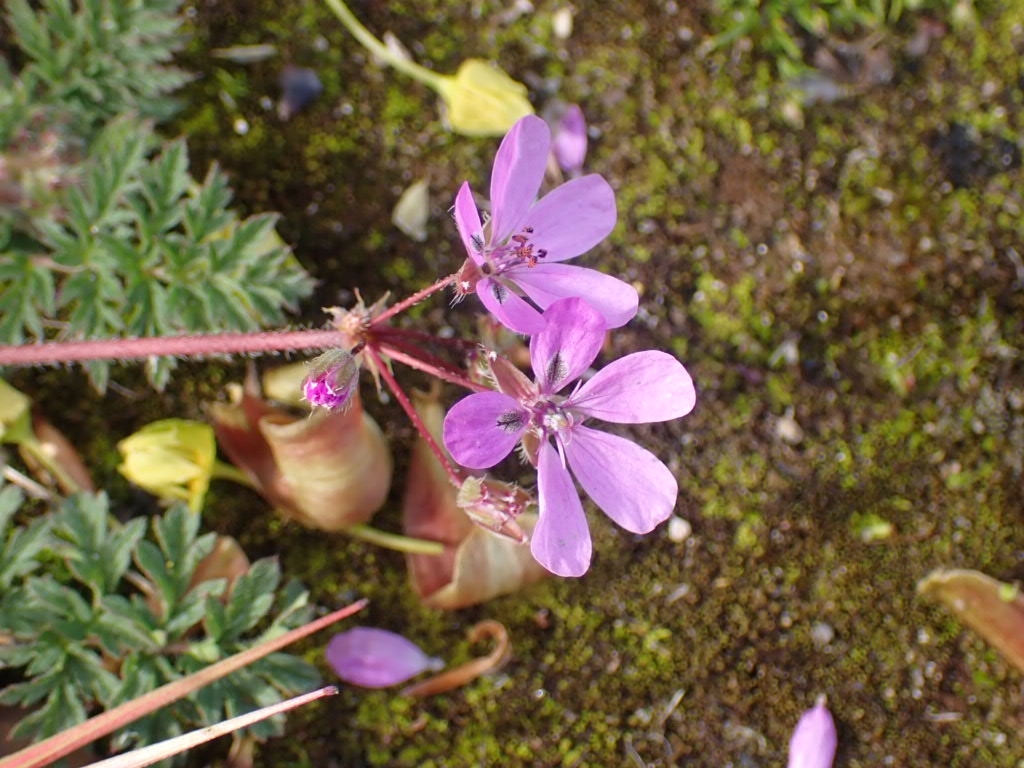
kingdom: Plantae
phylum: Tracheophyta
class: Magnoliopsida
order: Geraniales
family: Geraniaceae
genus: Erodium
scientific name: Erodium cicutarium
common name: Common stork's-bill
